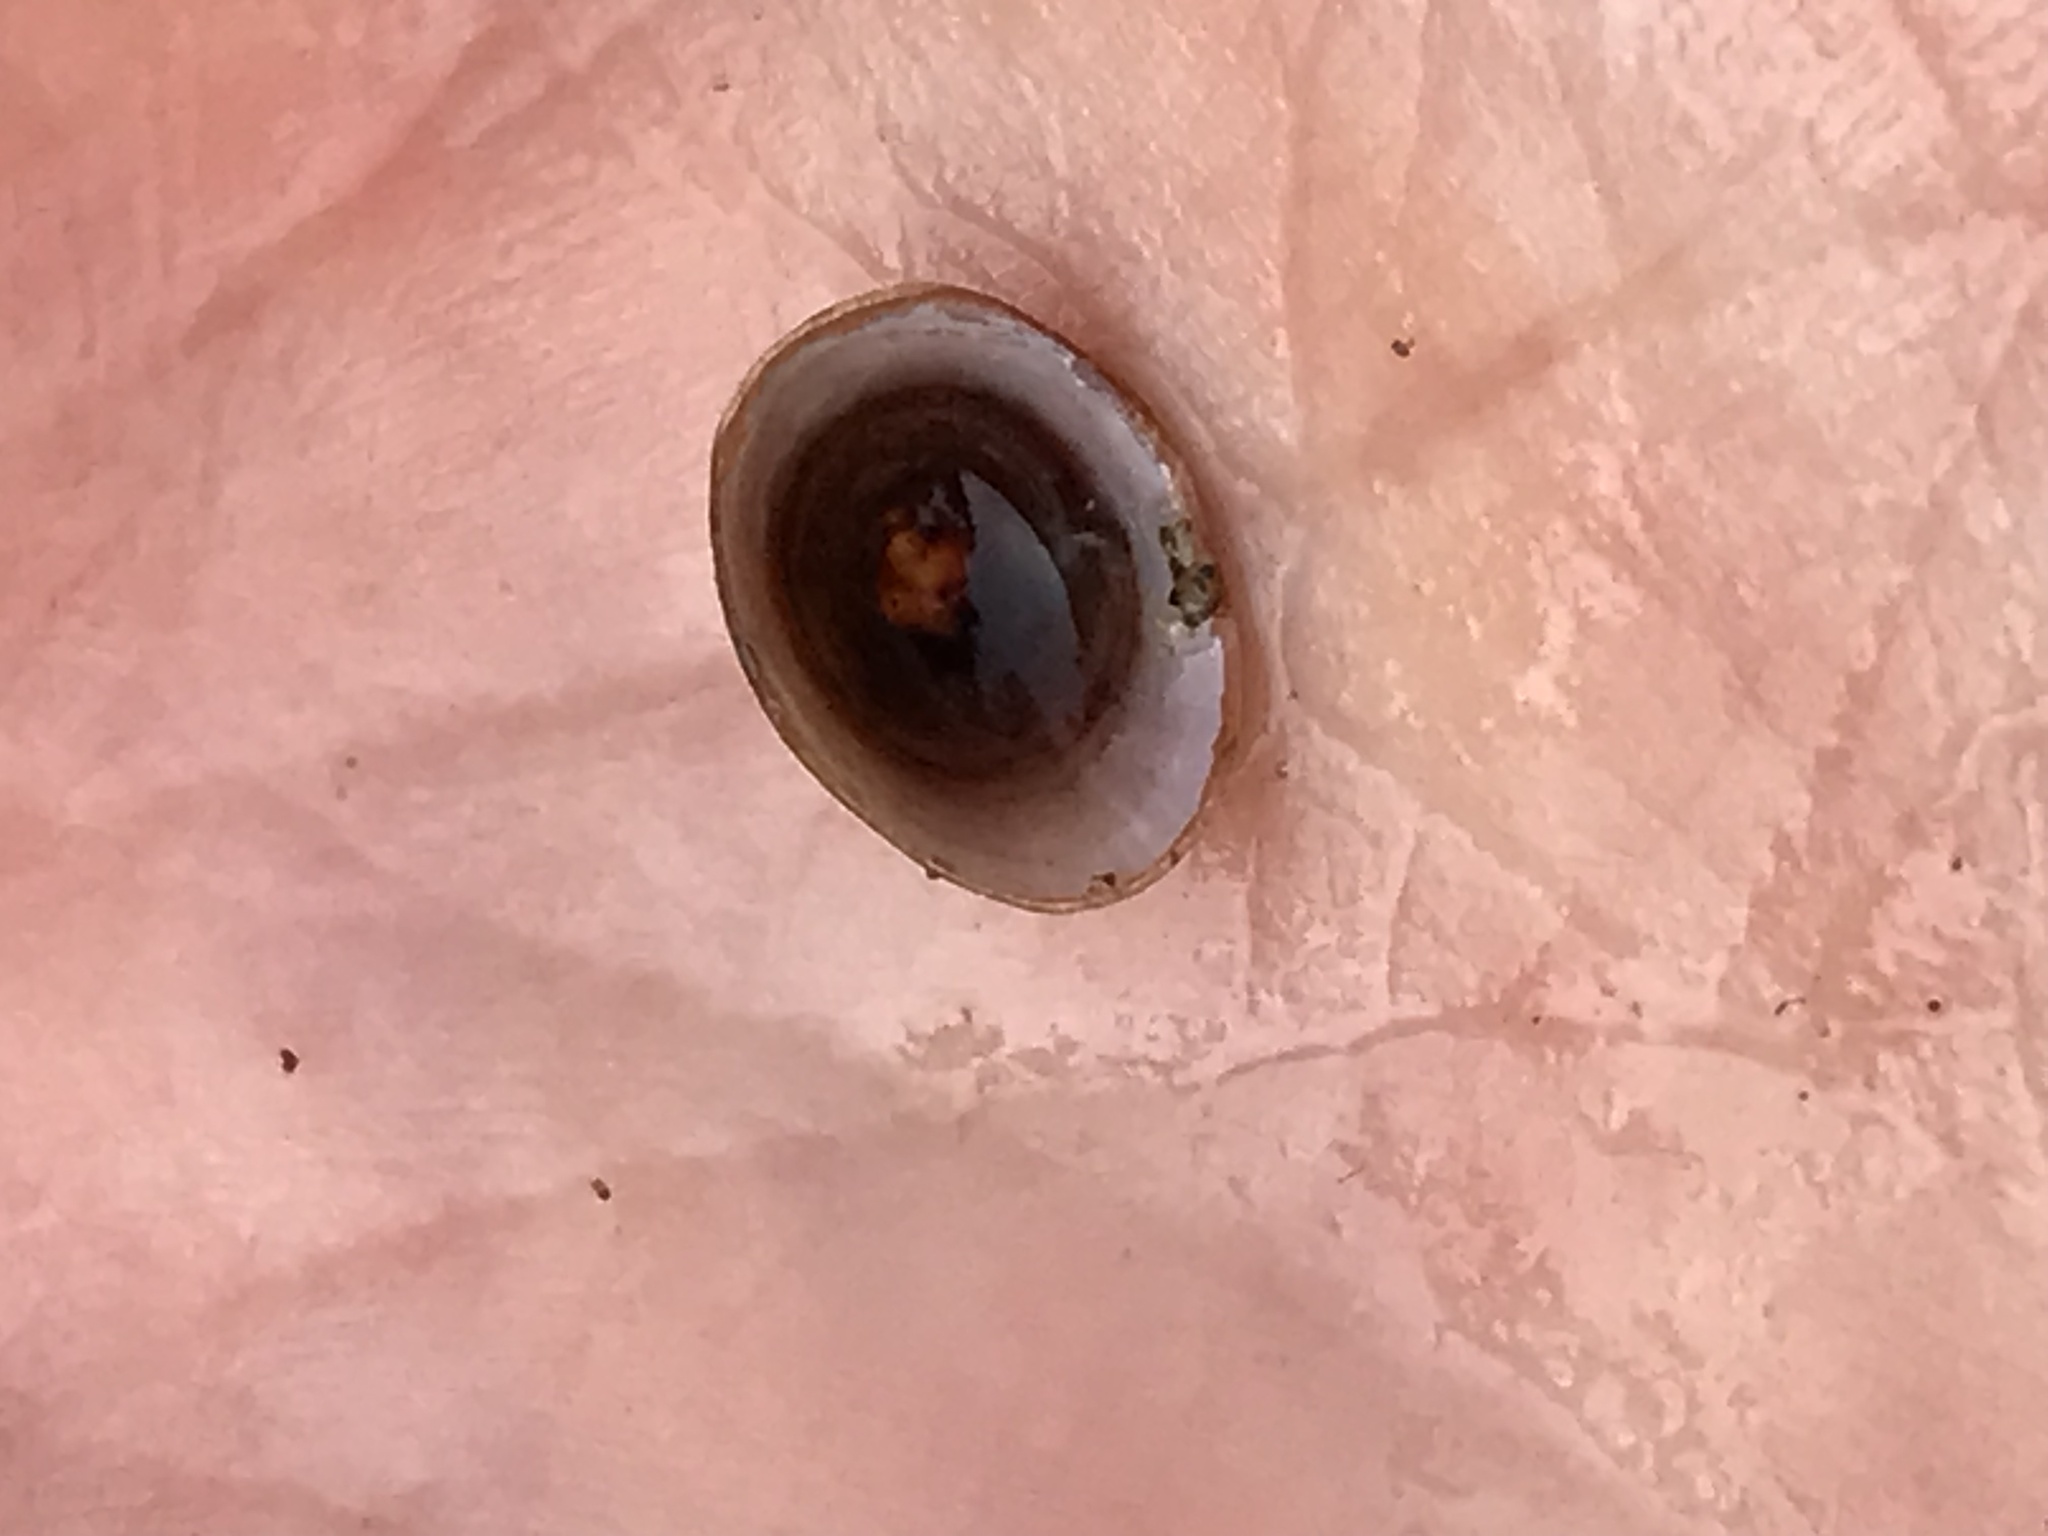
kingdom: Animalia
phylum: Mollusca
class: Gastropoda
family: Lymnaeidae
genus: Lanx
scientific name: Lanx alta
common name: Highcap lanx
